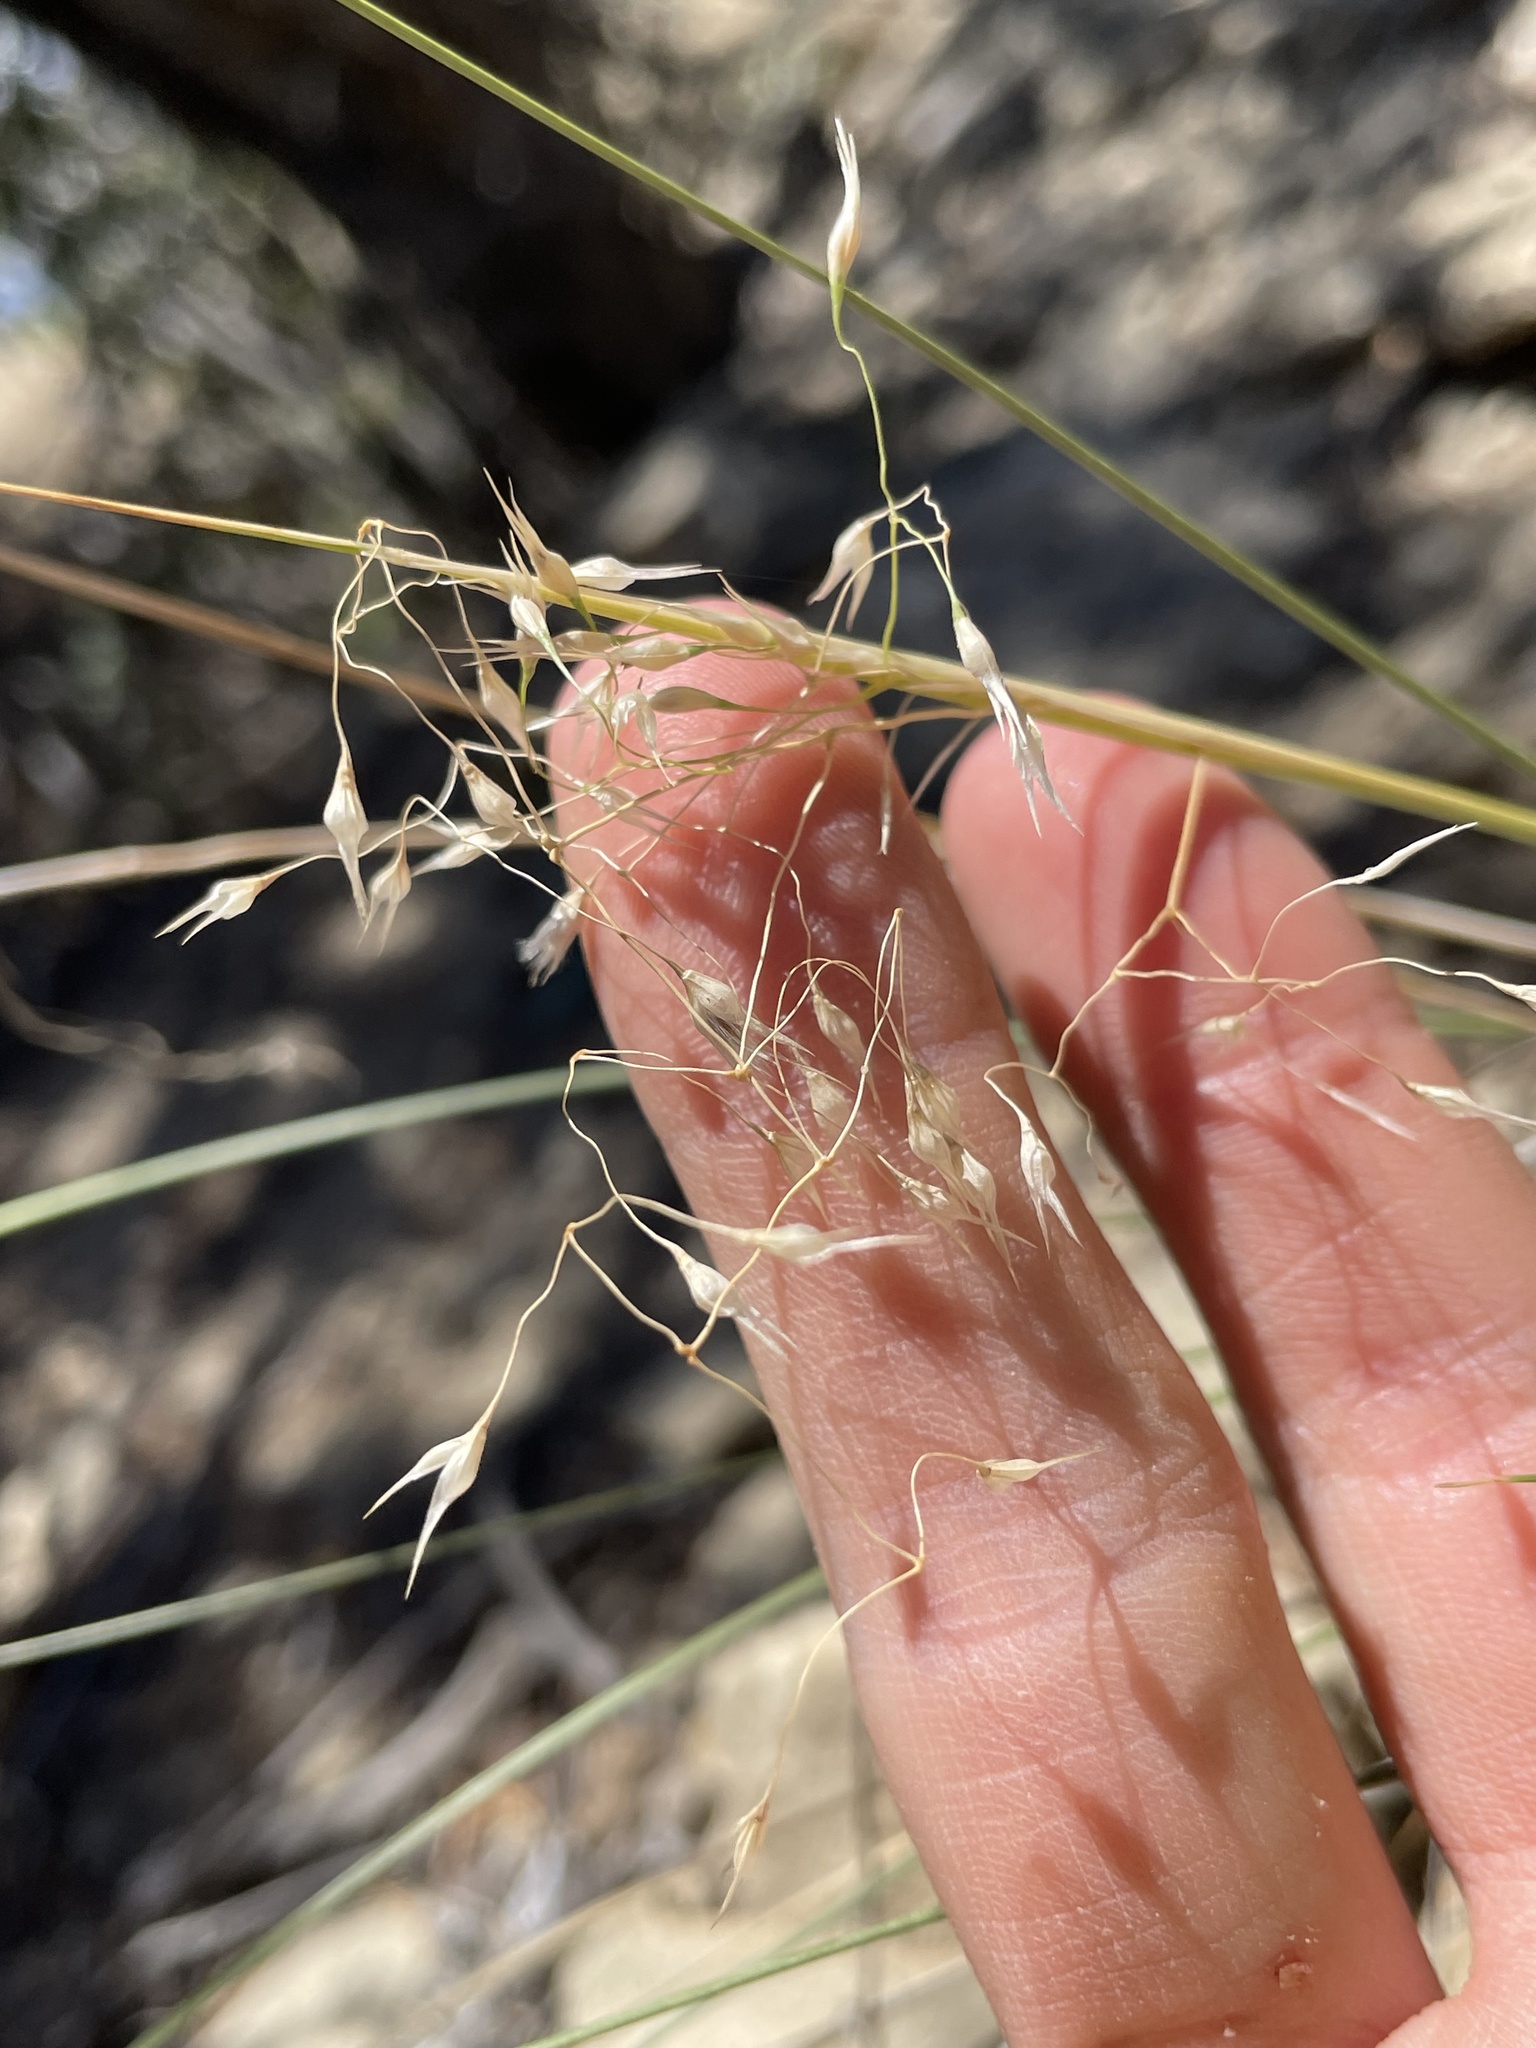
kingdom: Plantae
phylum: Tracheophyta
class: Liliopsida
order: Poales
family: Poaceae
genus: Eriocoma
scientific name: Eriocoma hymenoides
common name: Indian mountain ricegrass
